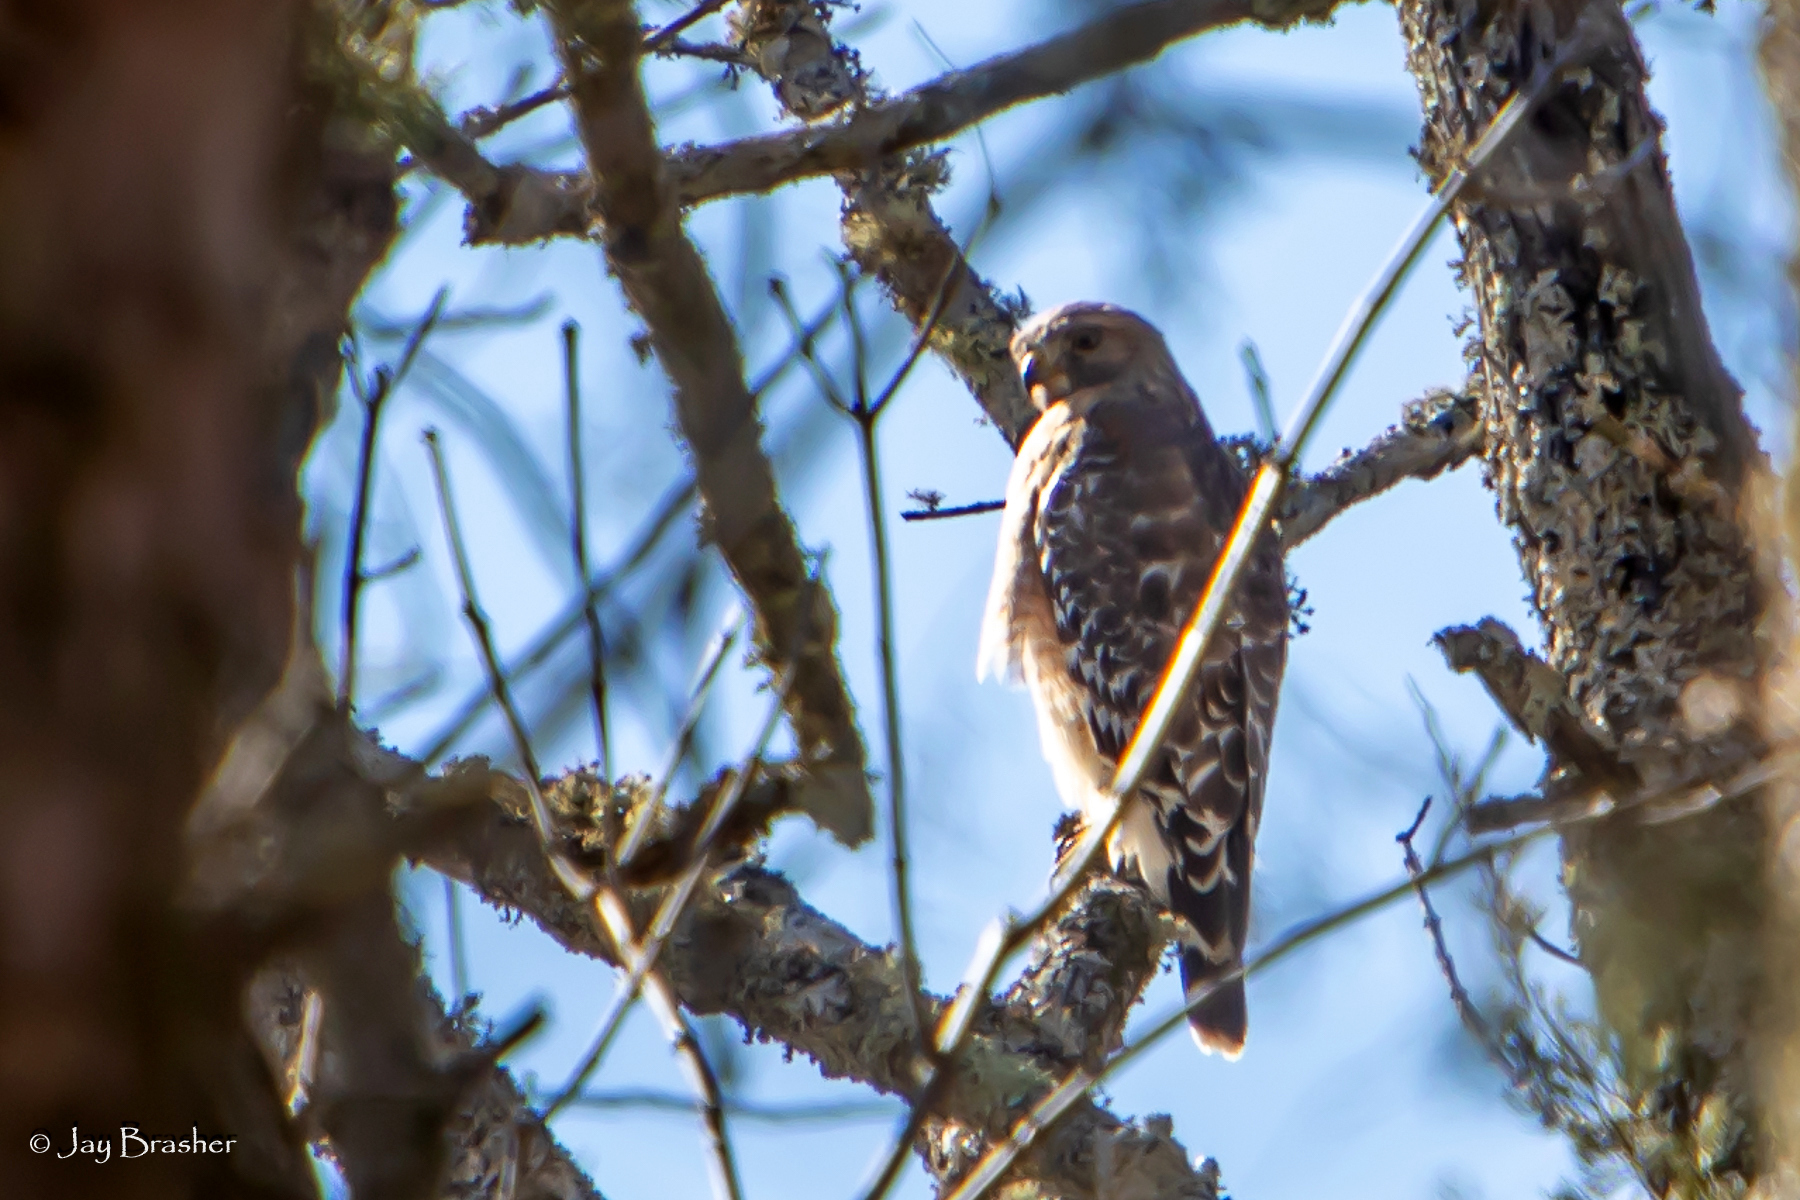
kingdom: Animalia
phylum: Chordata
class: Aves
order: Accipitriformes
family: Accipitridae
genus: Buteo
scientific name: Buteo lineatus
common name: Red-shouldered hawk
